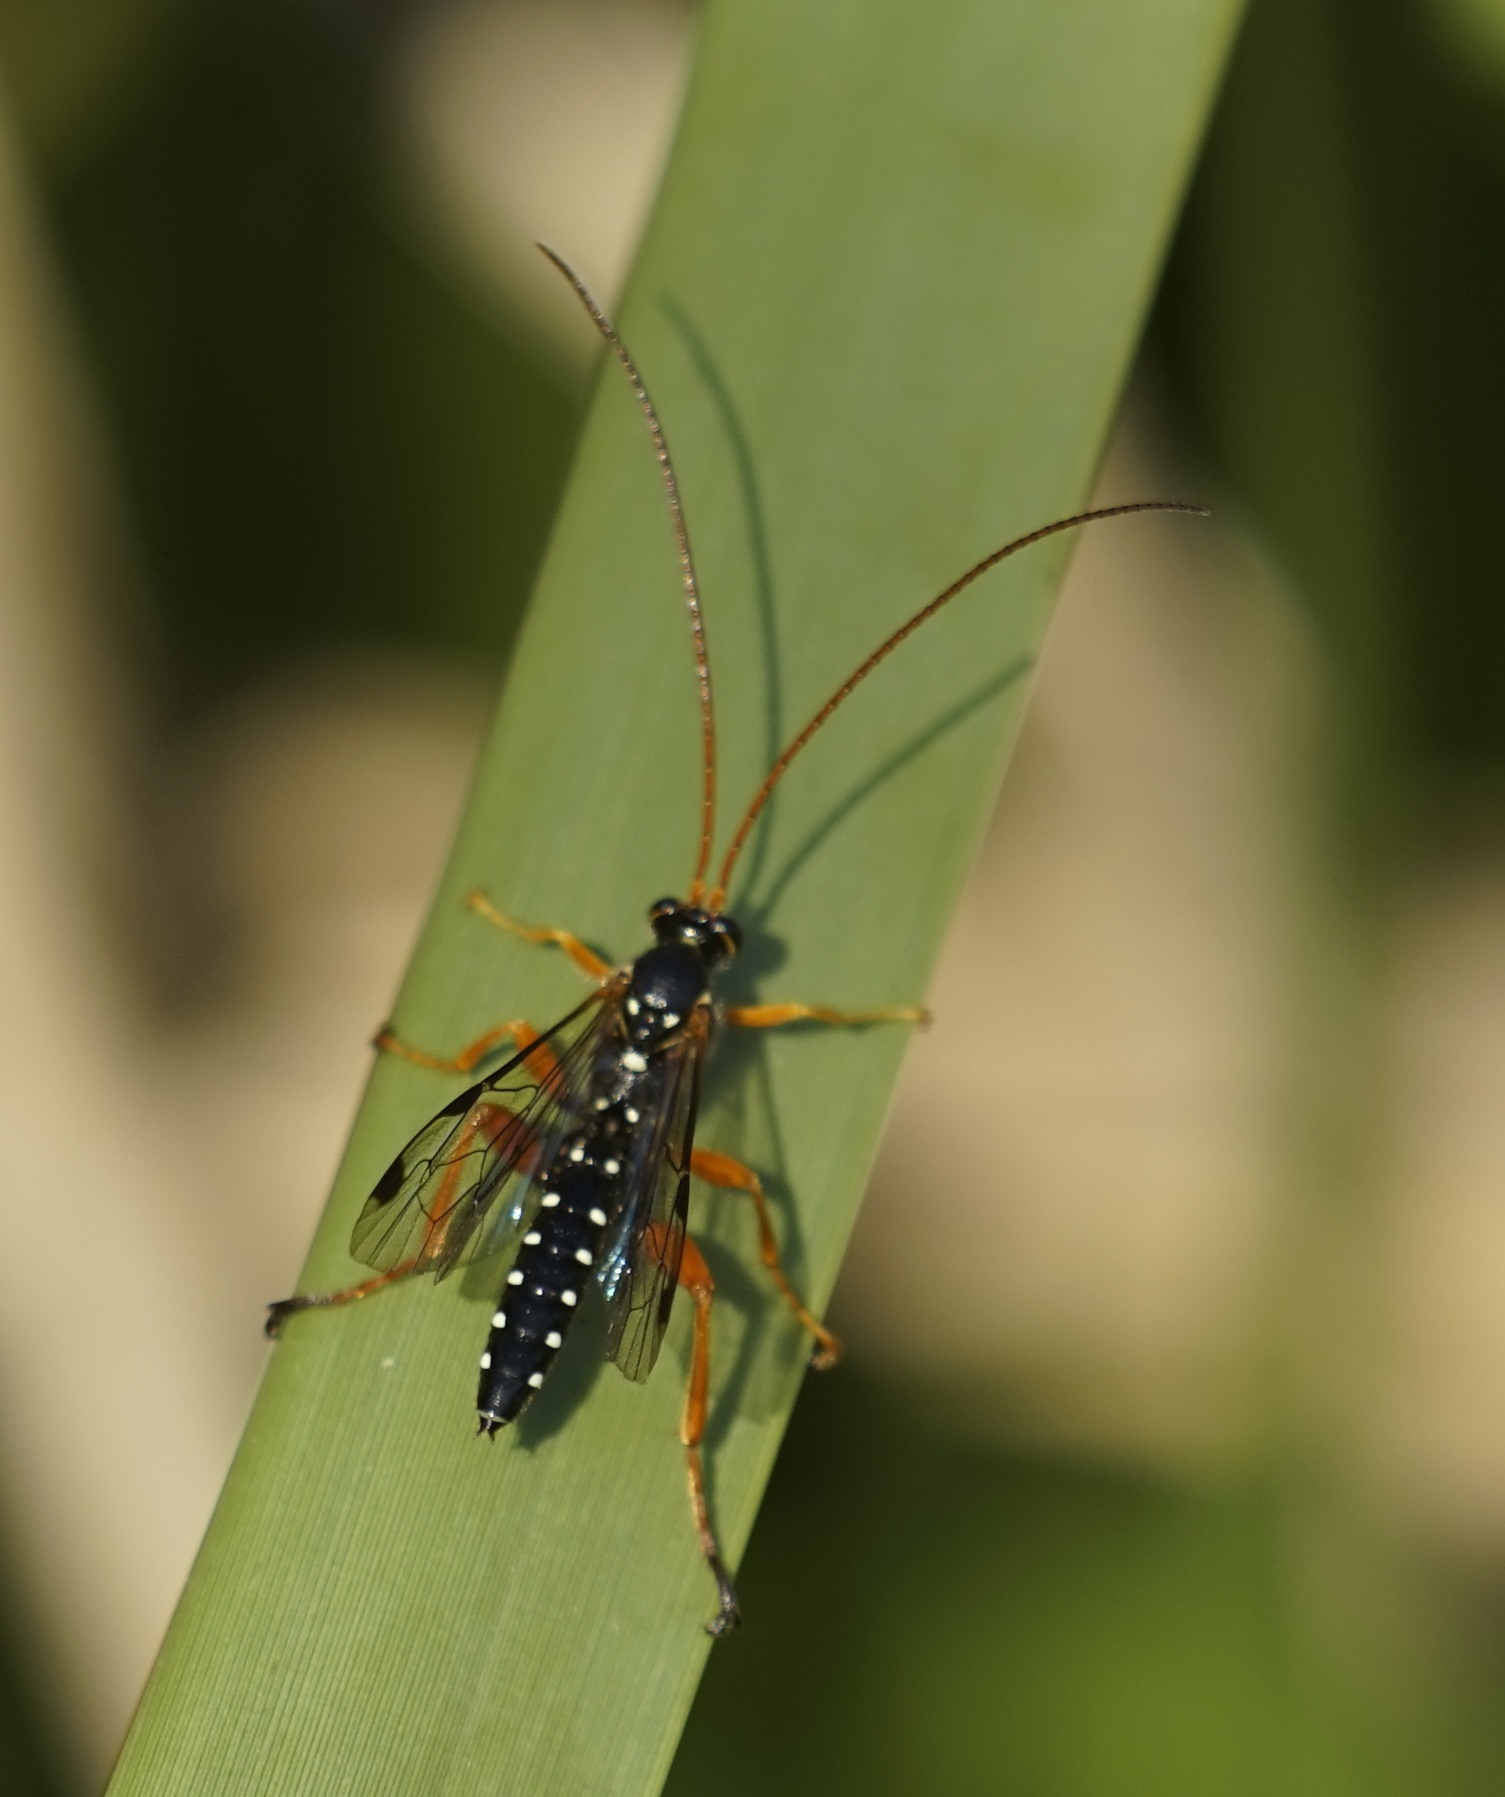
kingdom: Animalia
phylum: Arthropoda
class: Insecta
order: Hymenoptera
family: Ichneumonidae
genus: Echthromorpha
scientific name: Echthromorpha intricatoria
